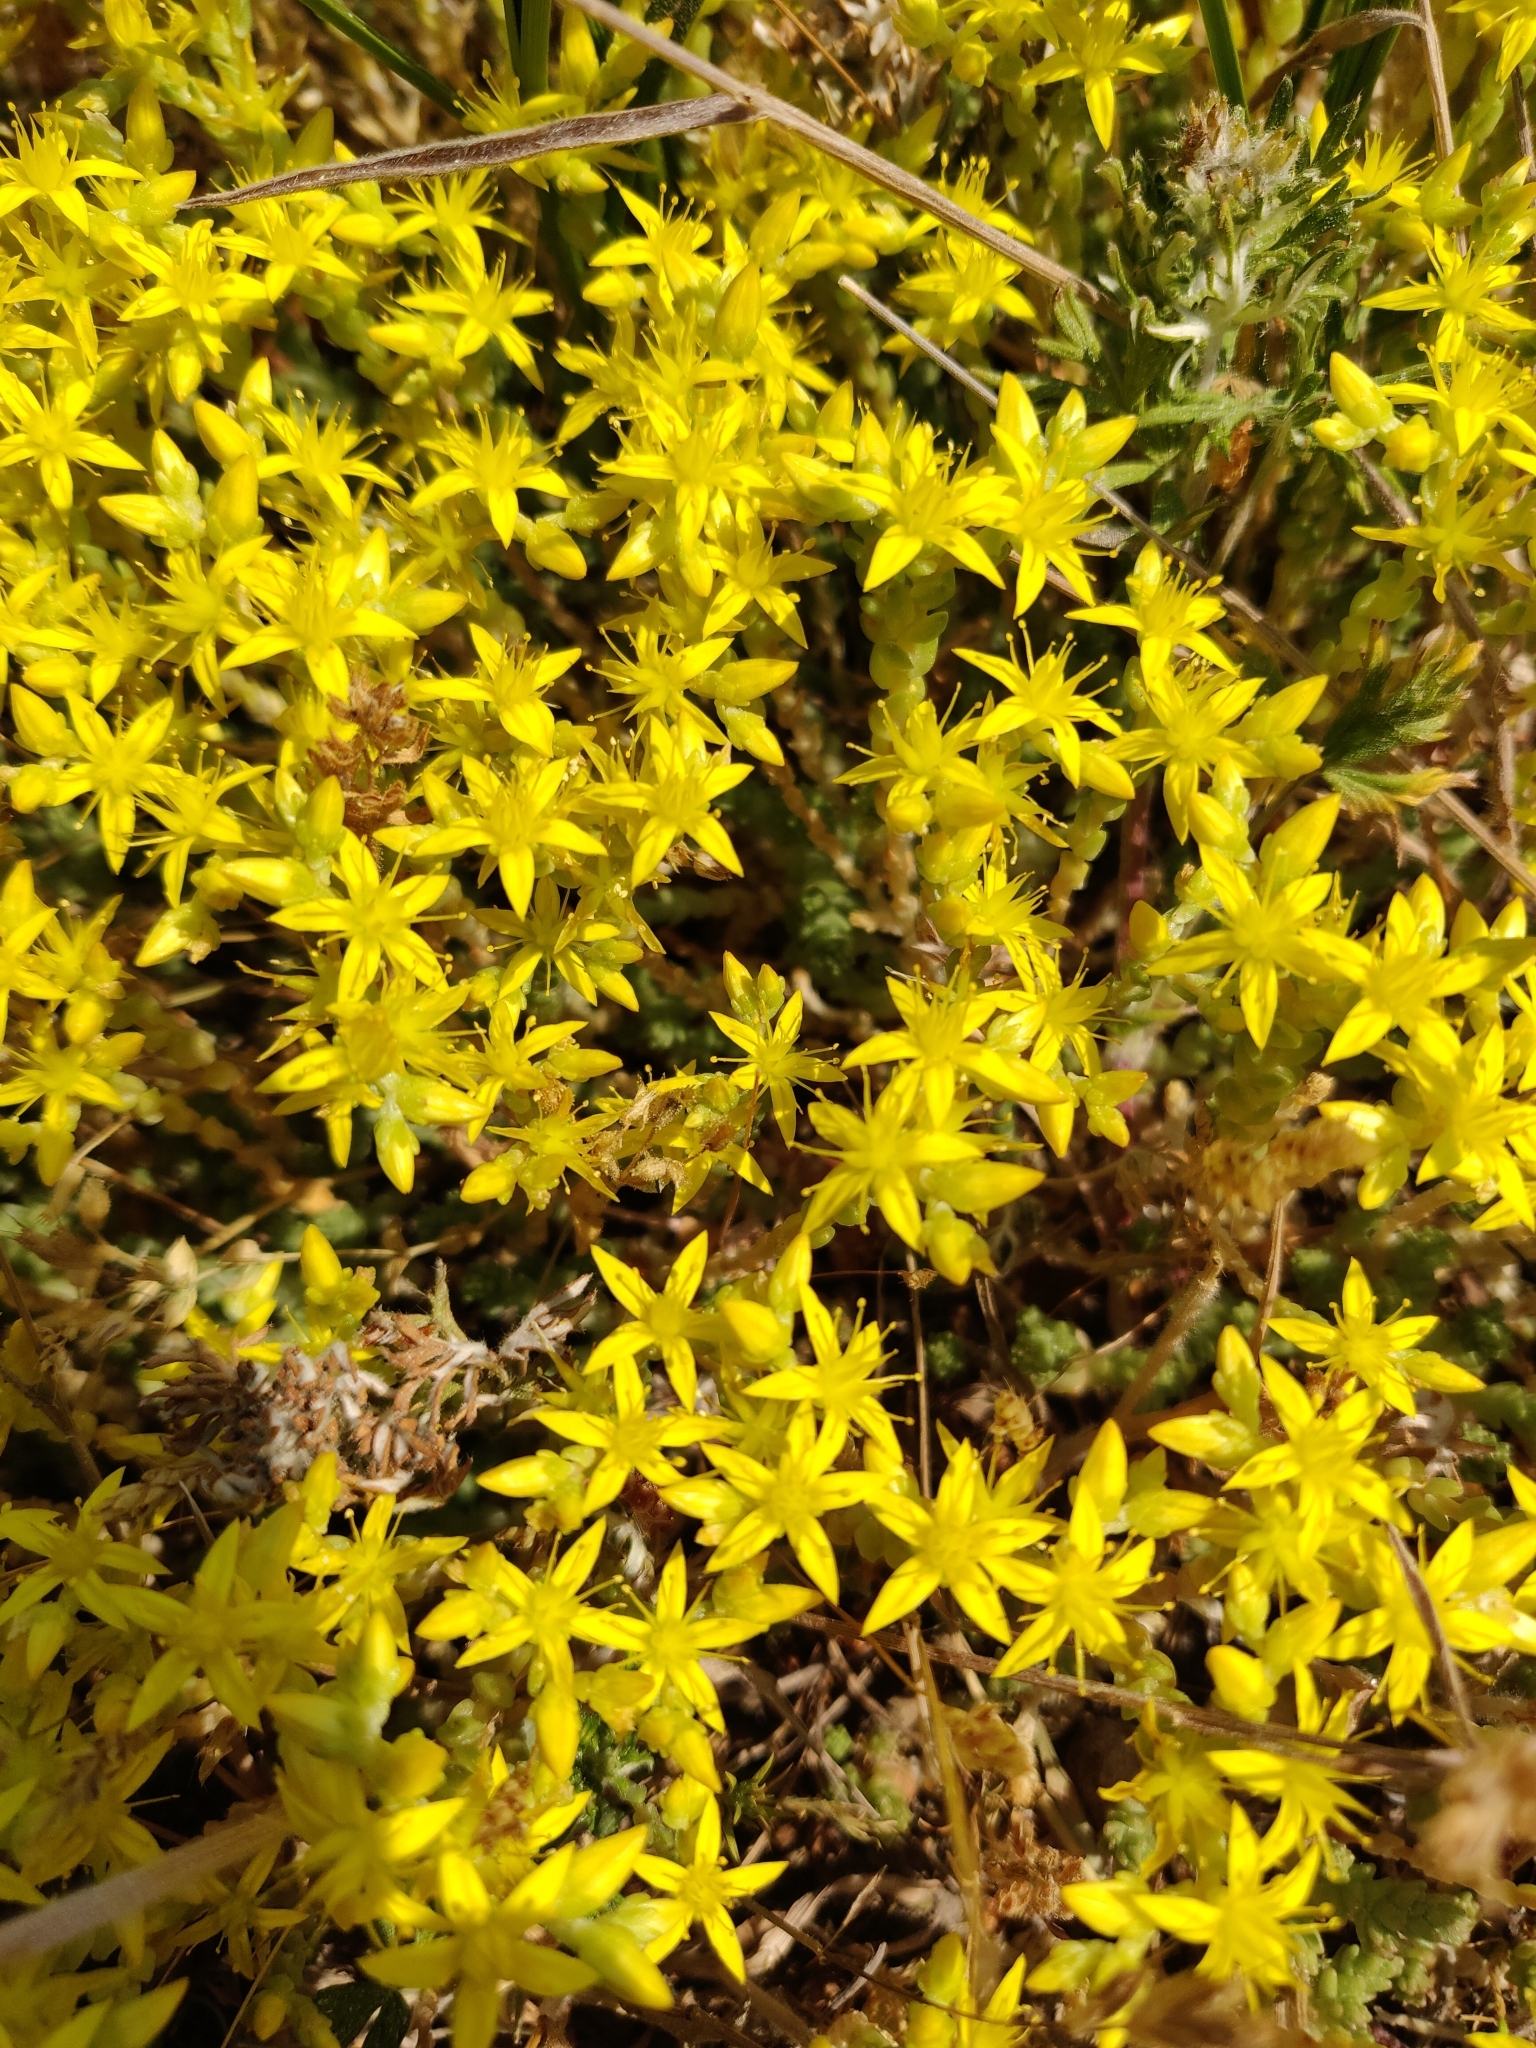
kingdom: Plantae
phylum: Tracheophyta
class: Magnoliopsida
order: Saxifragales
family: Crassulaceae
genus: Sedum
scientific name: Sedum acre
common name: Biting stonecrop
